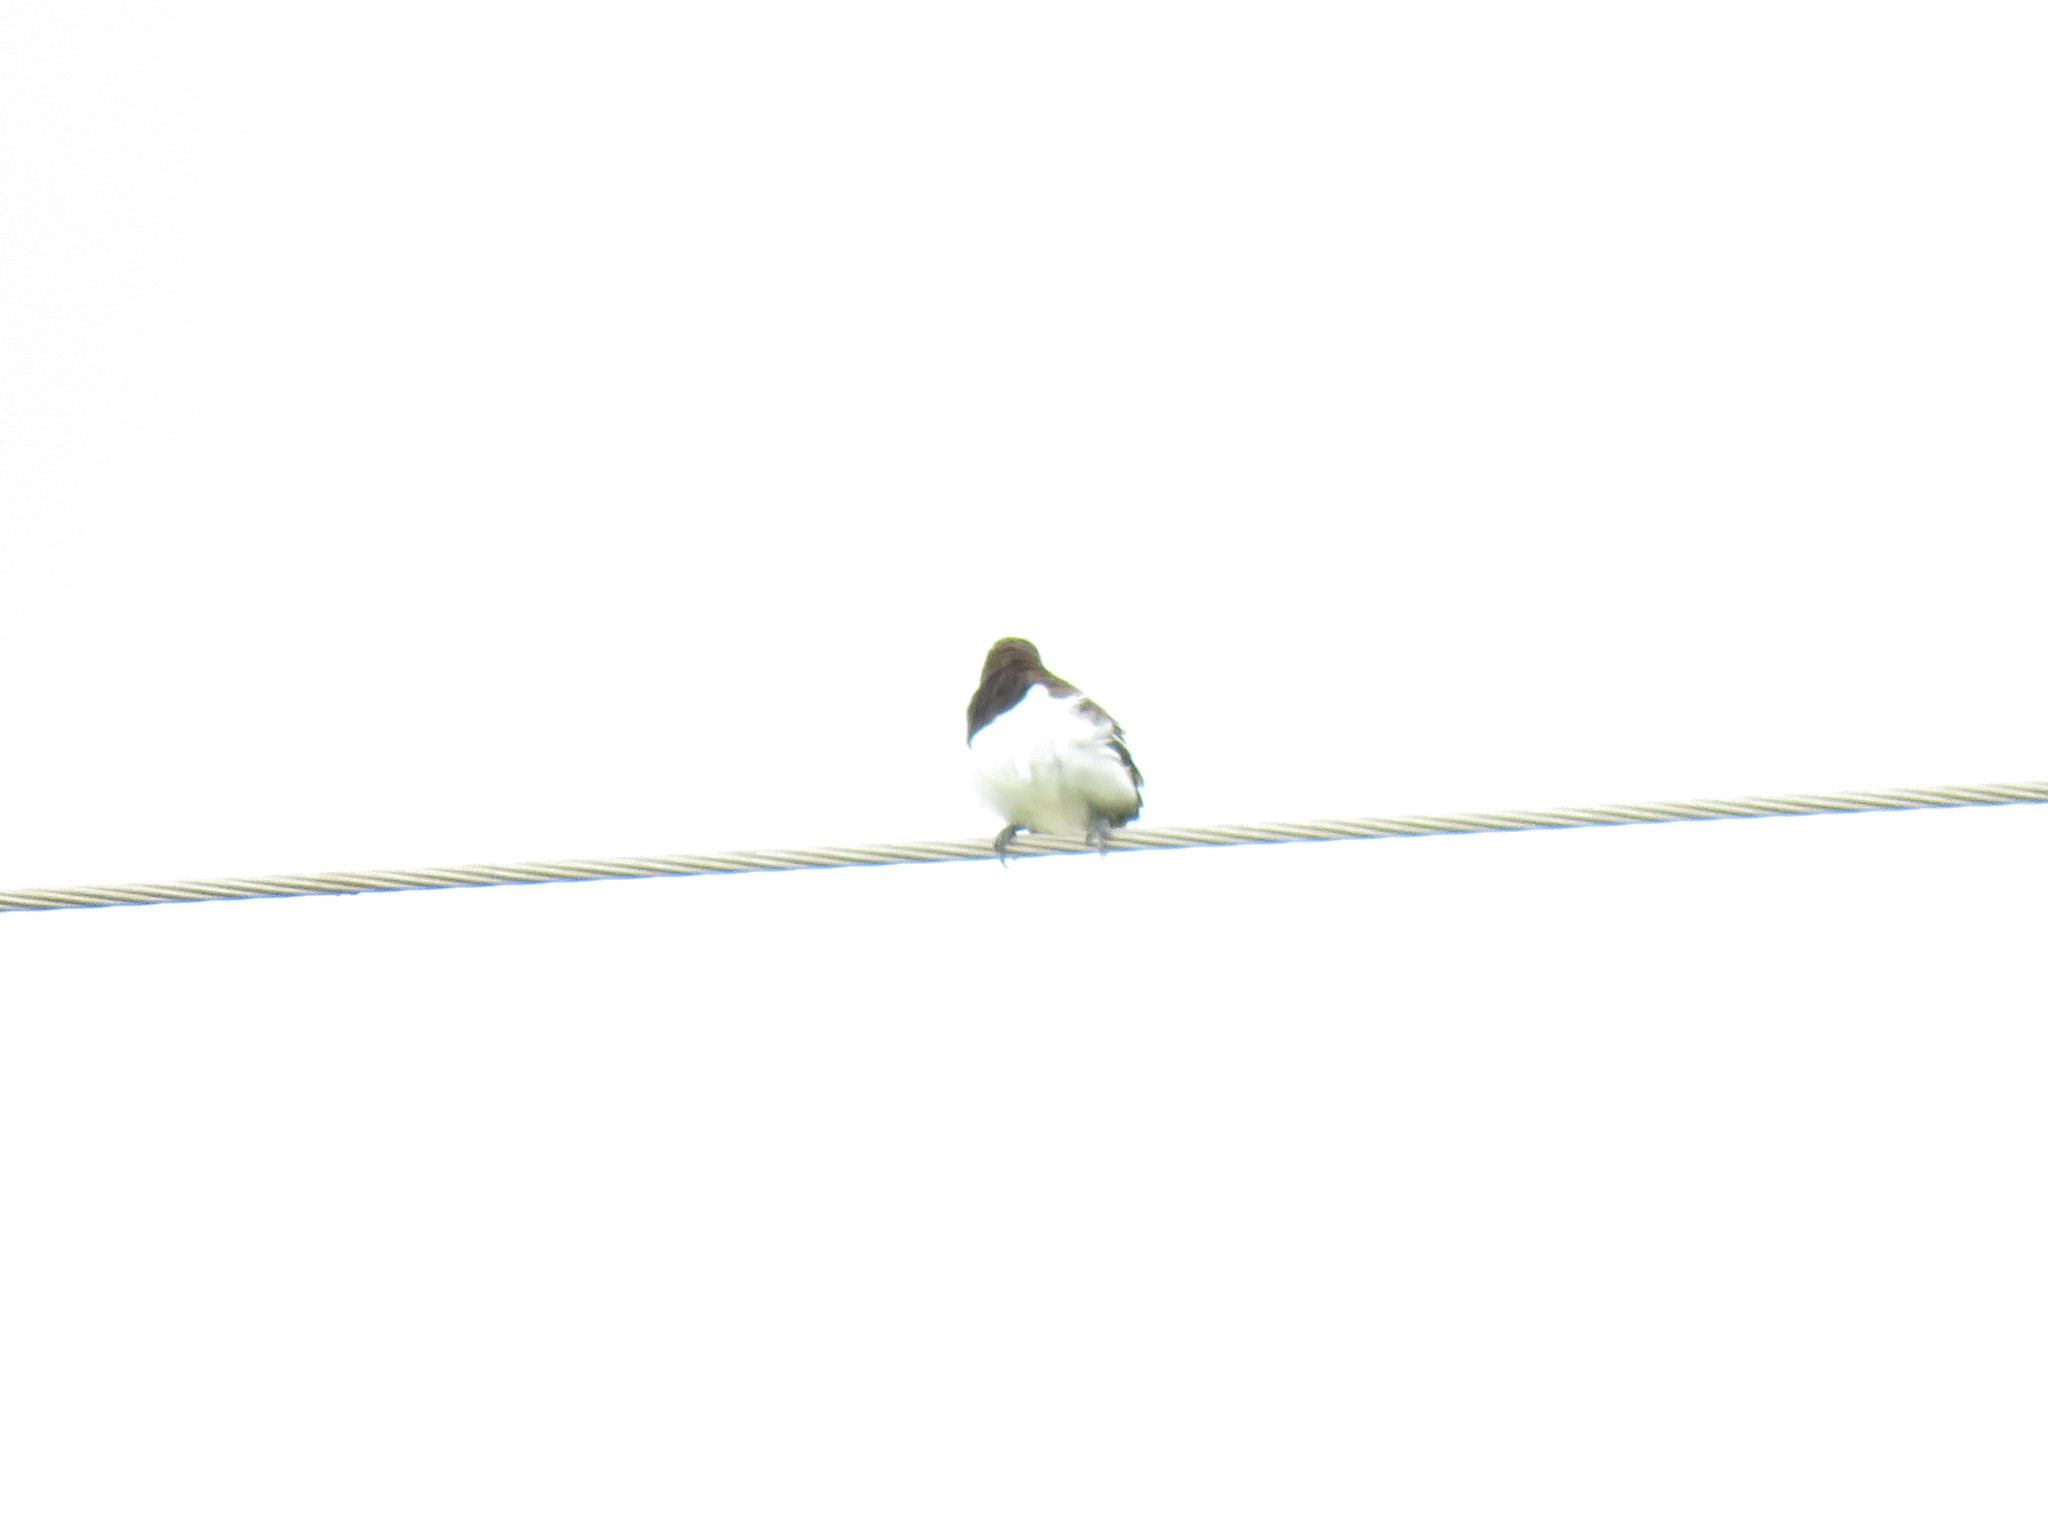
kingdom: Animalia
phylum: Chordata
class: Aves
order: Passeriformes
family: Estrildidae
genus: Lonchura
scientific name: Lonchura striata
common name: White-rumped munia
